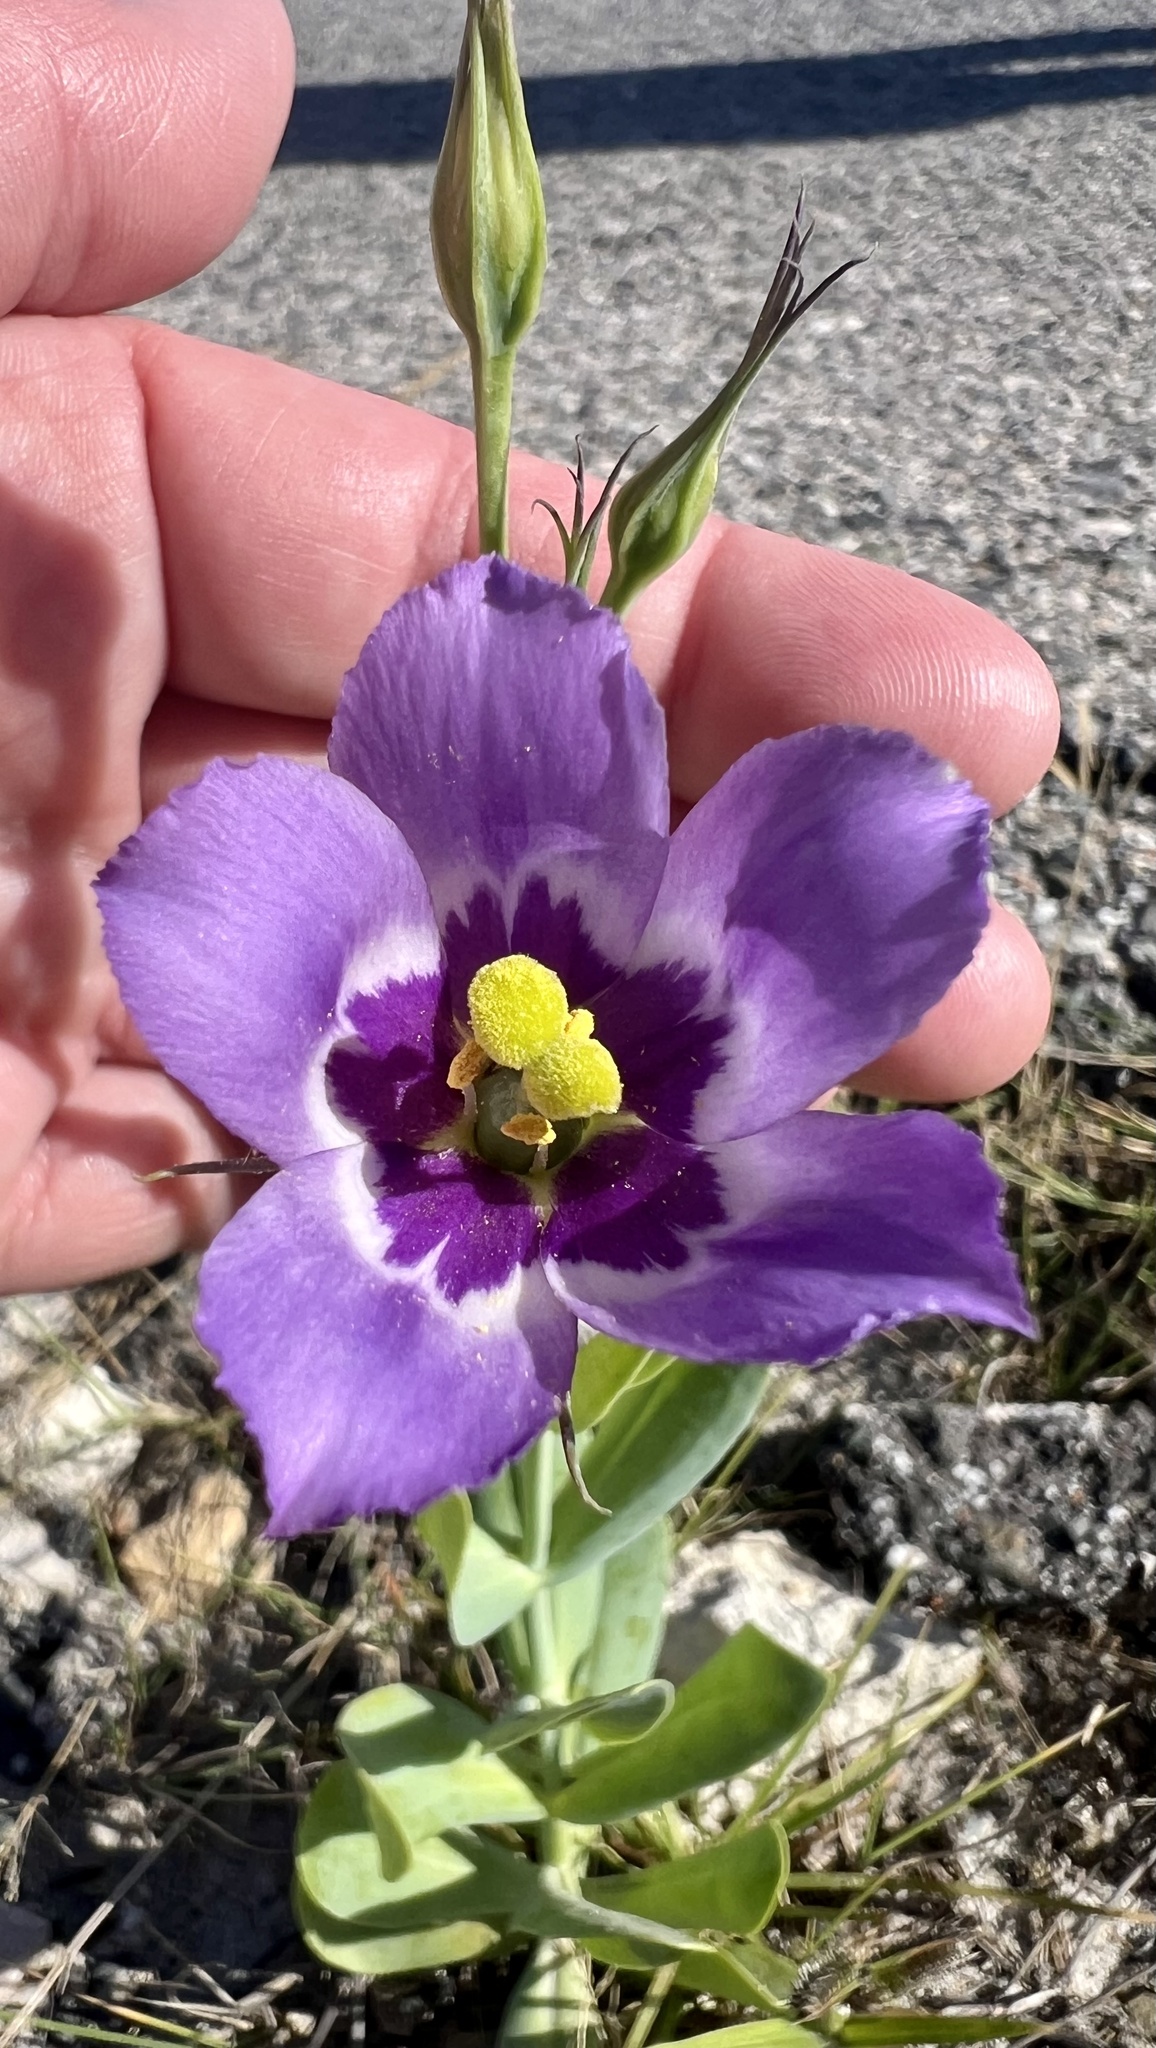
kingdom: Plantae
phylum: Tracheophyta
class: Magnoliopsida
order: Gentianales
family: Gentianaceae
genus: Eustoma
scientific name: Eustoma exaltatum
